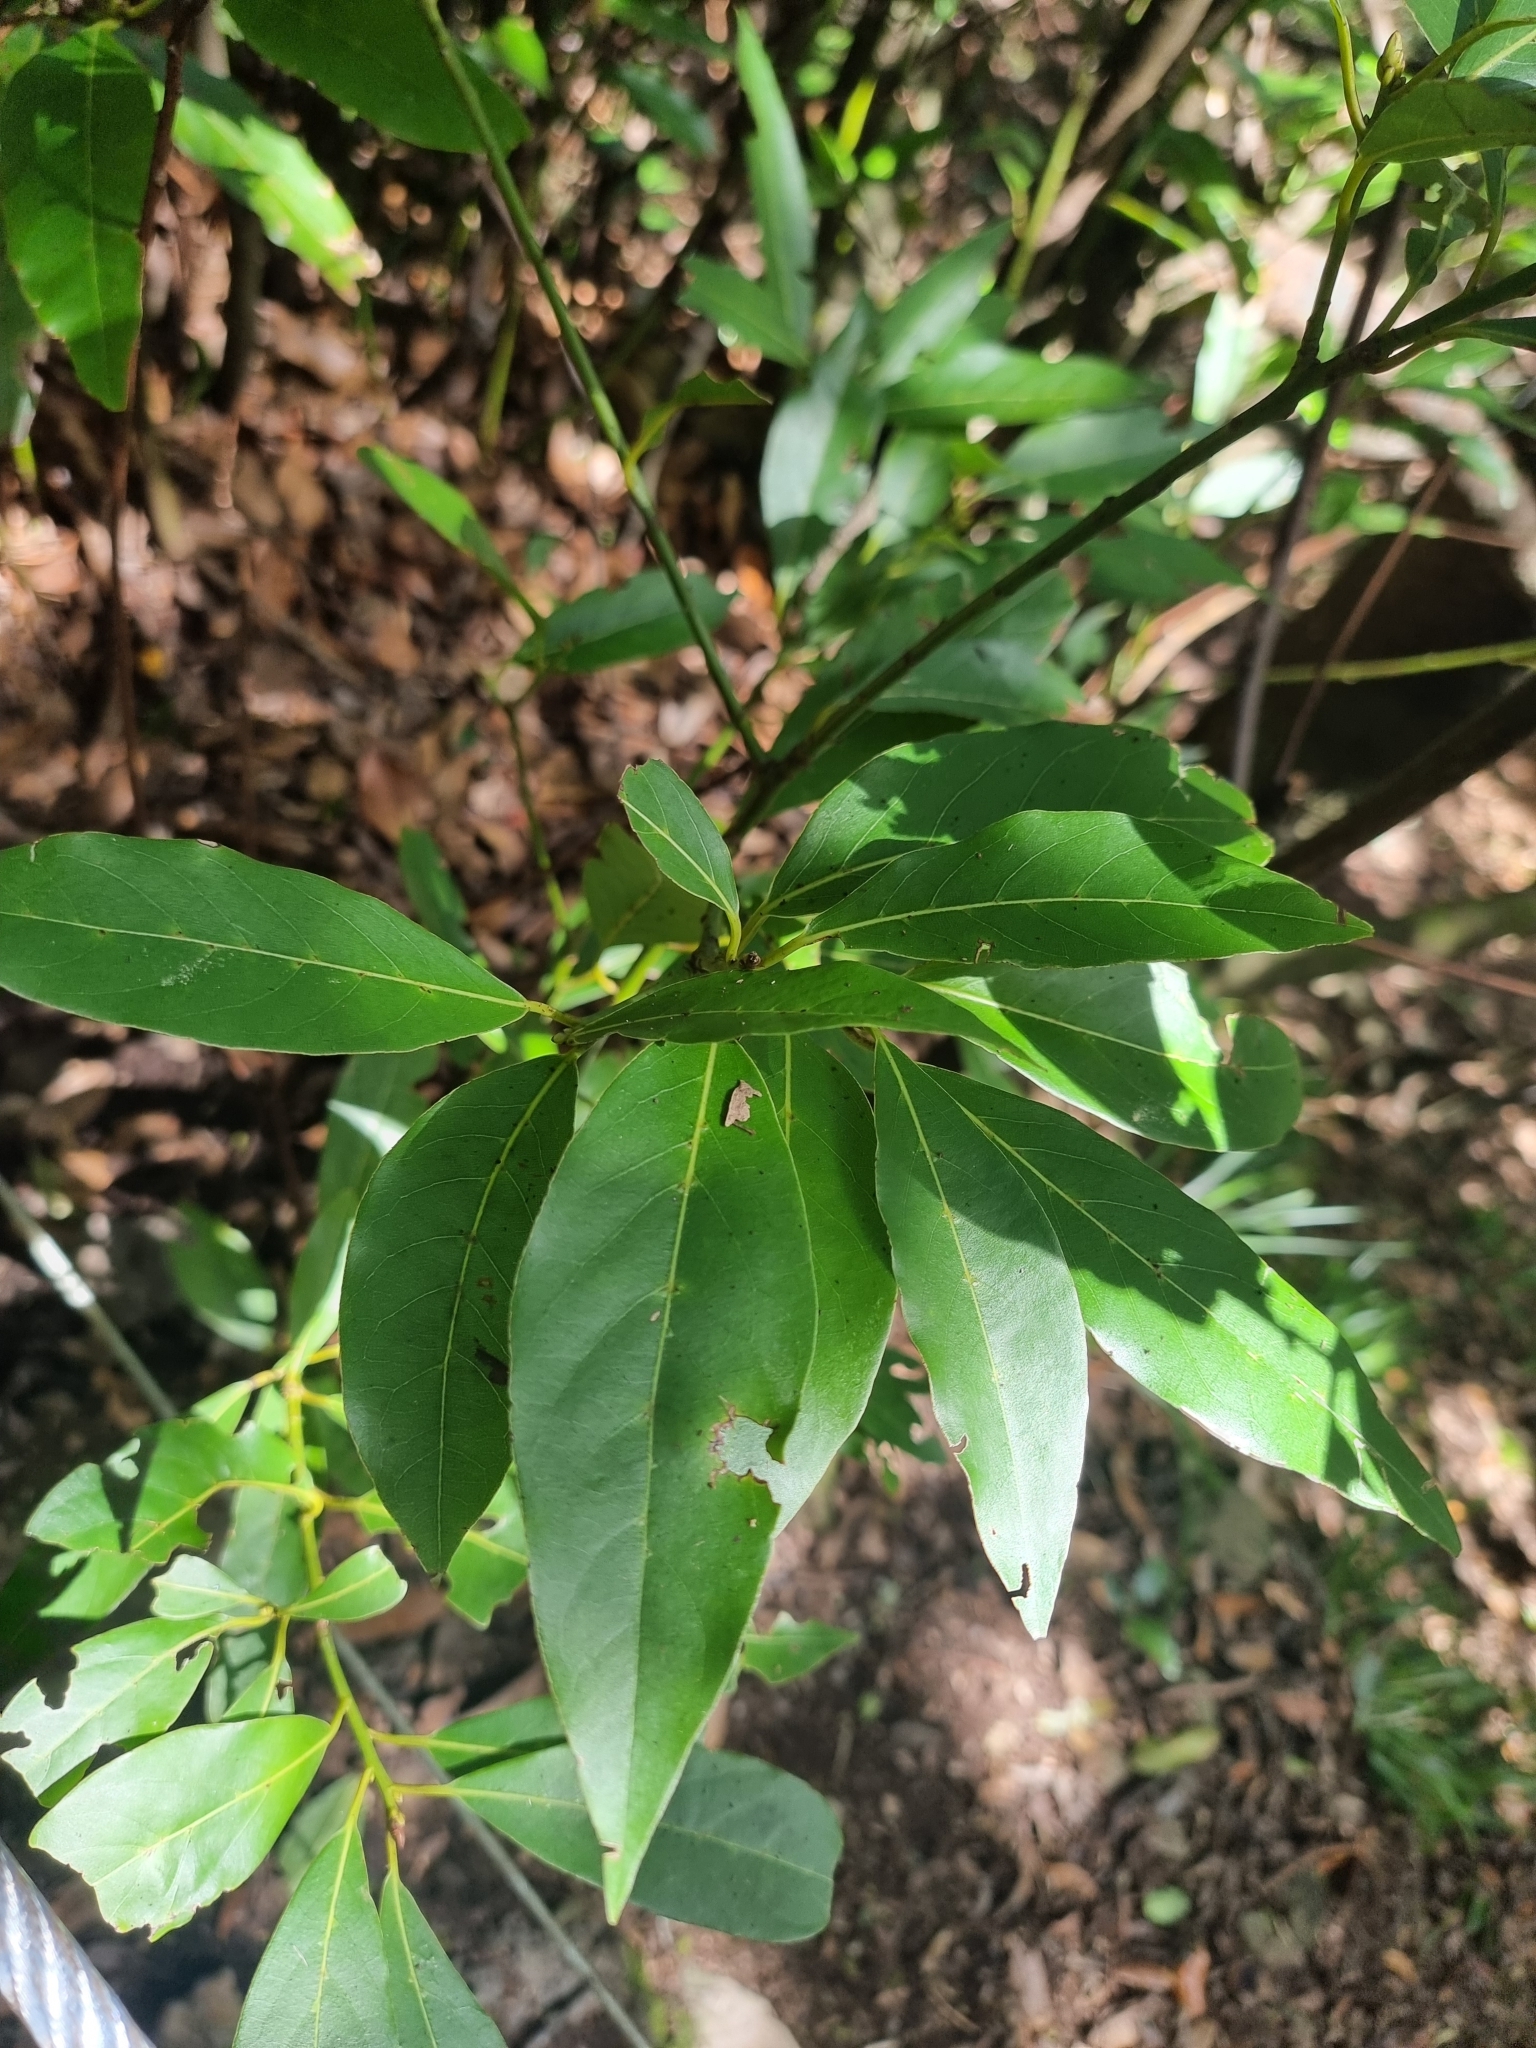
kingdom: Plantae
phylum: Tracheophyta
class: Magnoliopsida
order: Laurales
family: Lauraceae
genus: Laurus
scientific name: Laurus novocanariensis
